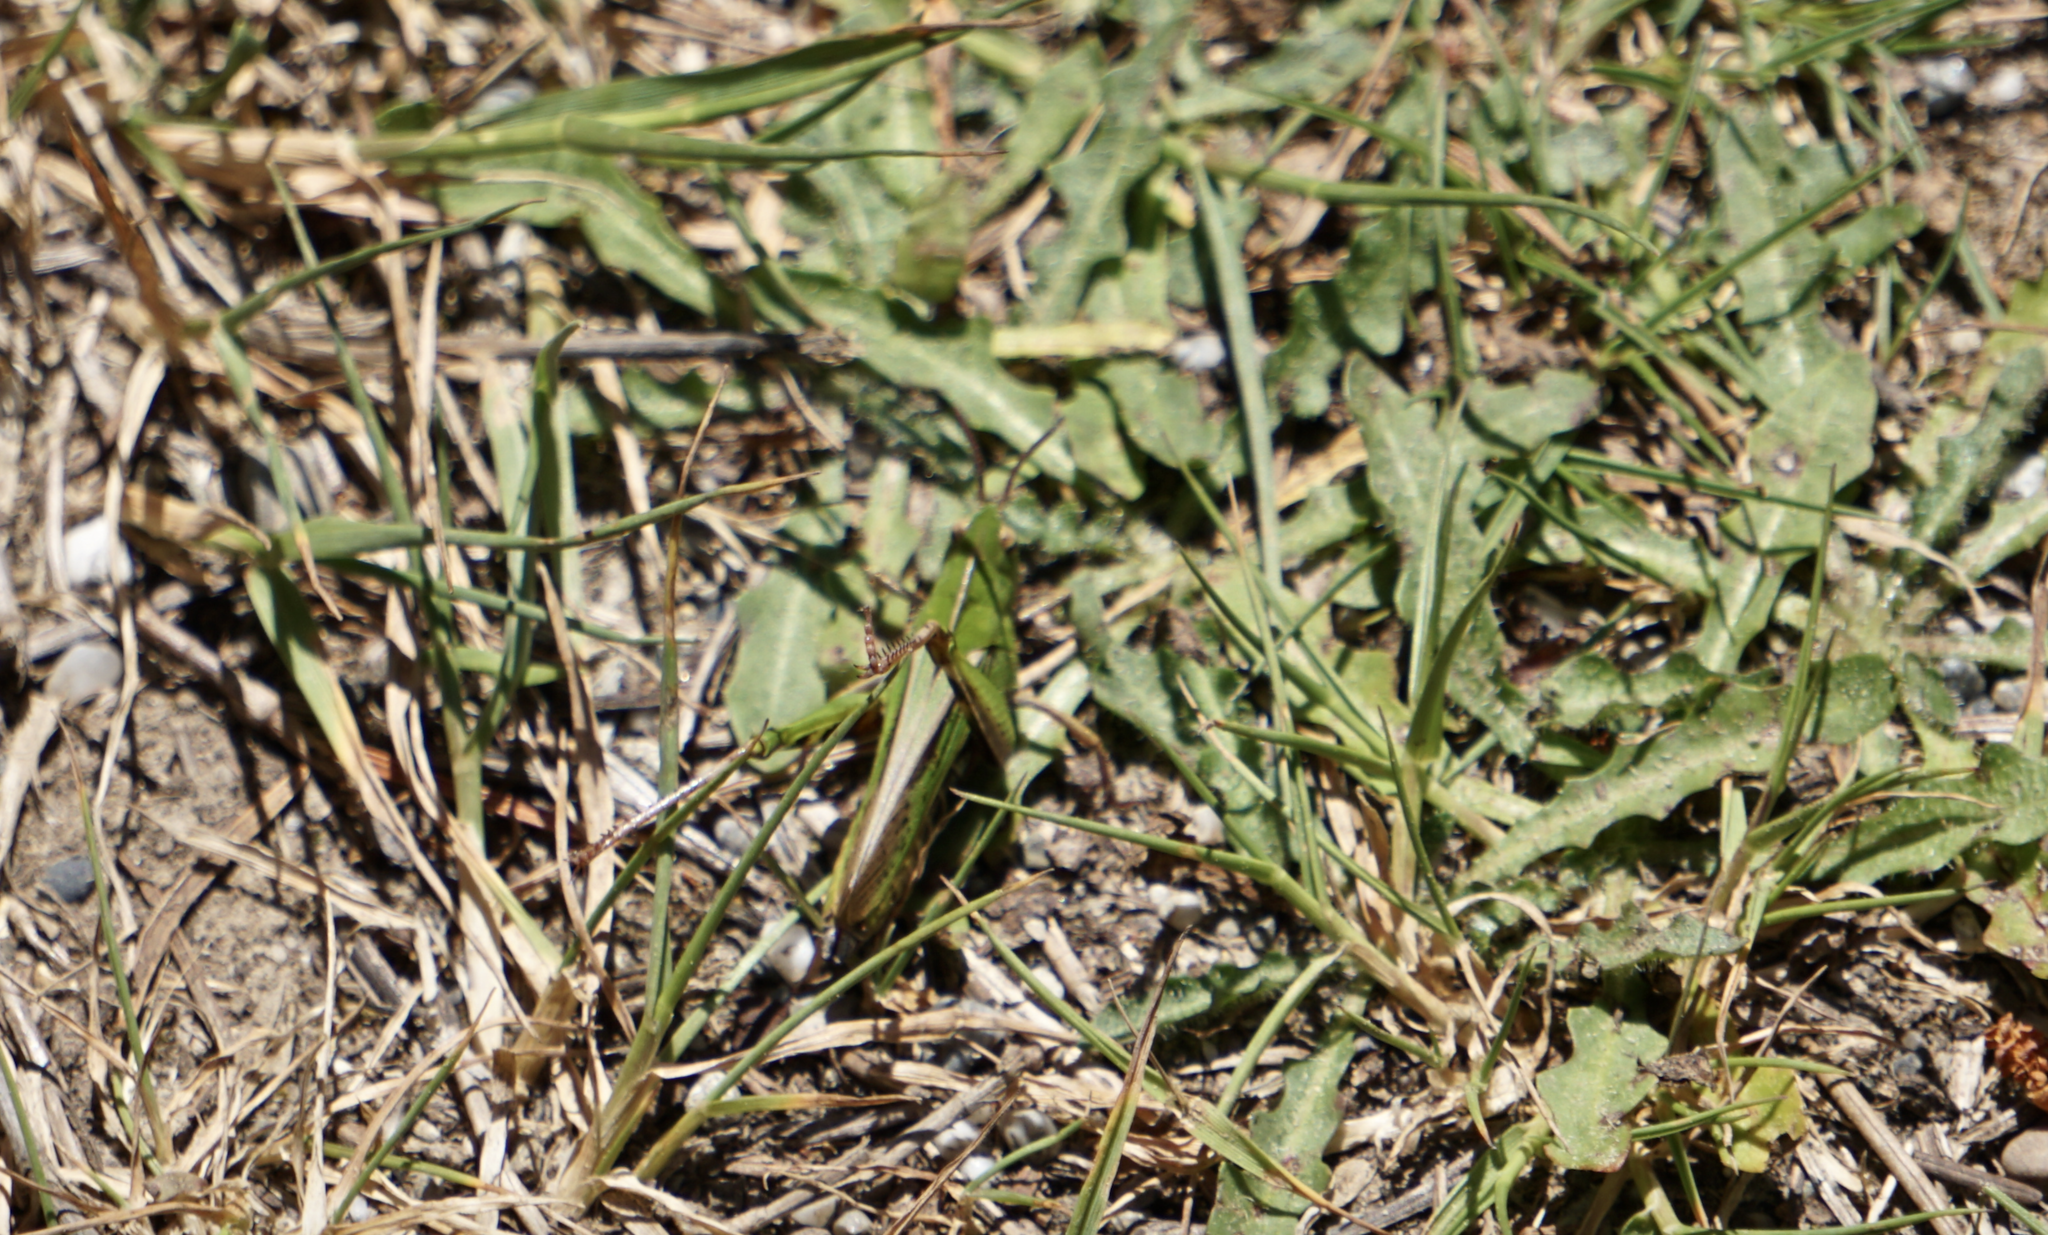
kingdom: Animalia
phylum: Arthropoda
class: Insecta
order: Orthoptera
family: Acrididae
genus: Chortophaga
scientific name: Chortophaga mendocino
